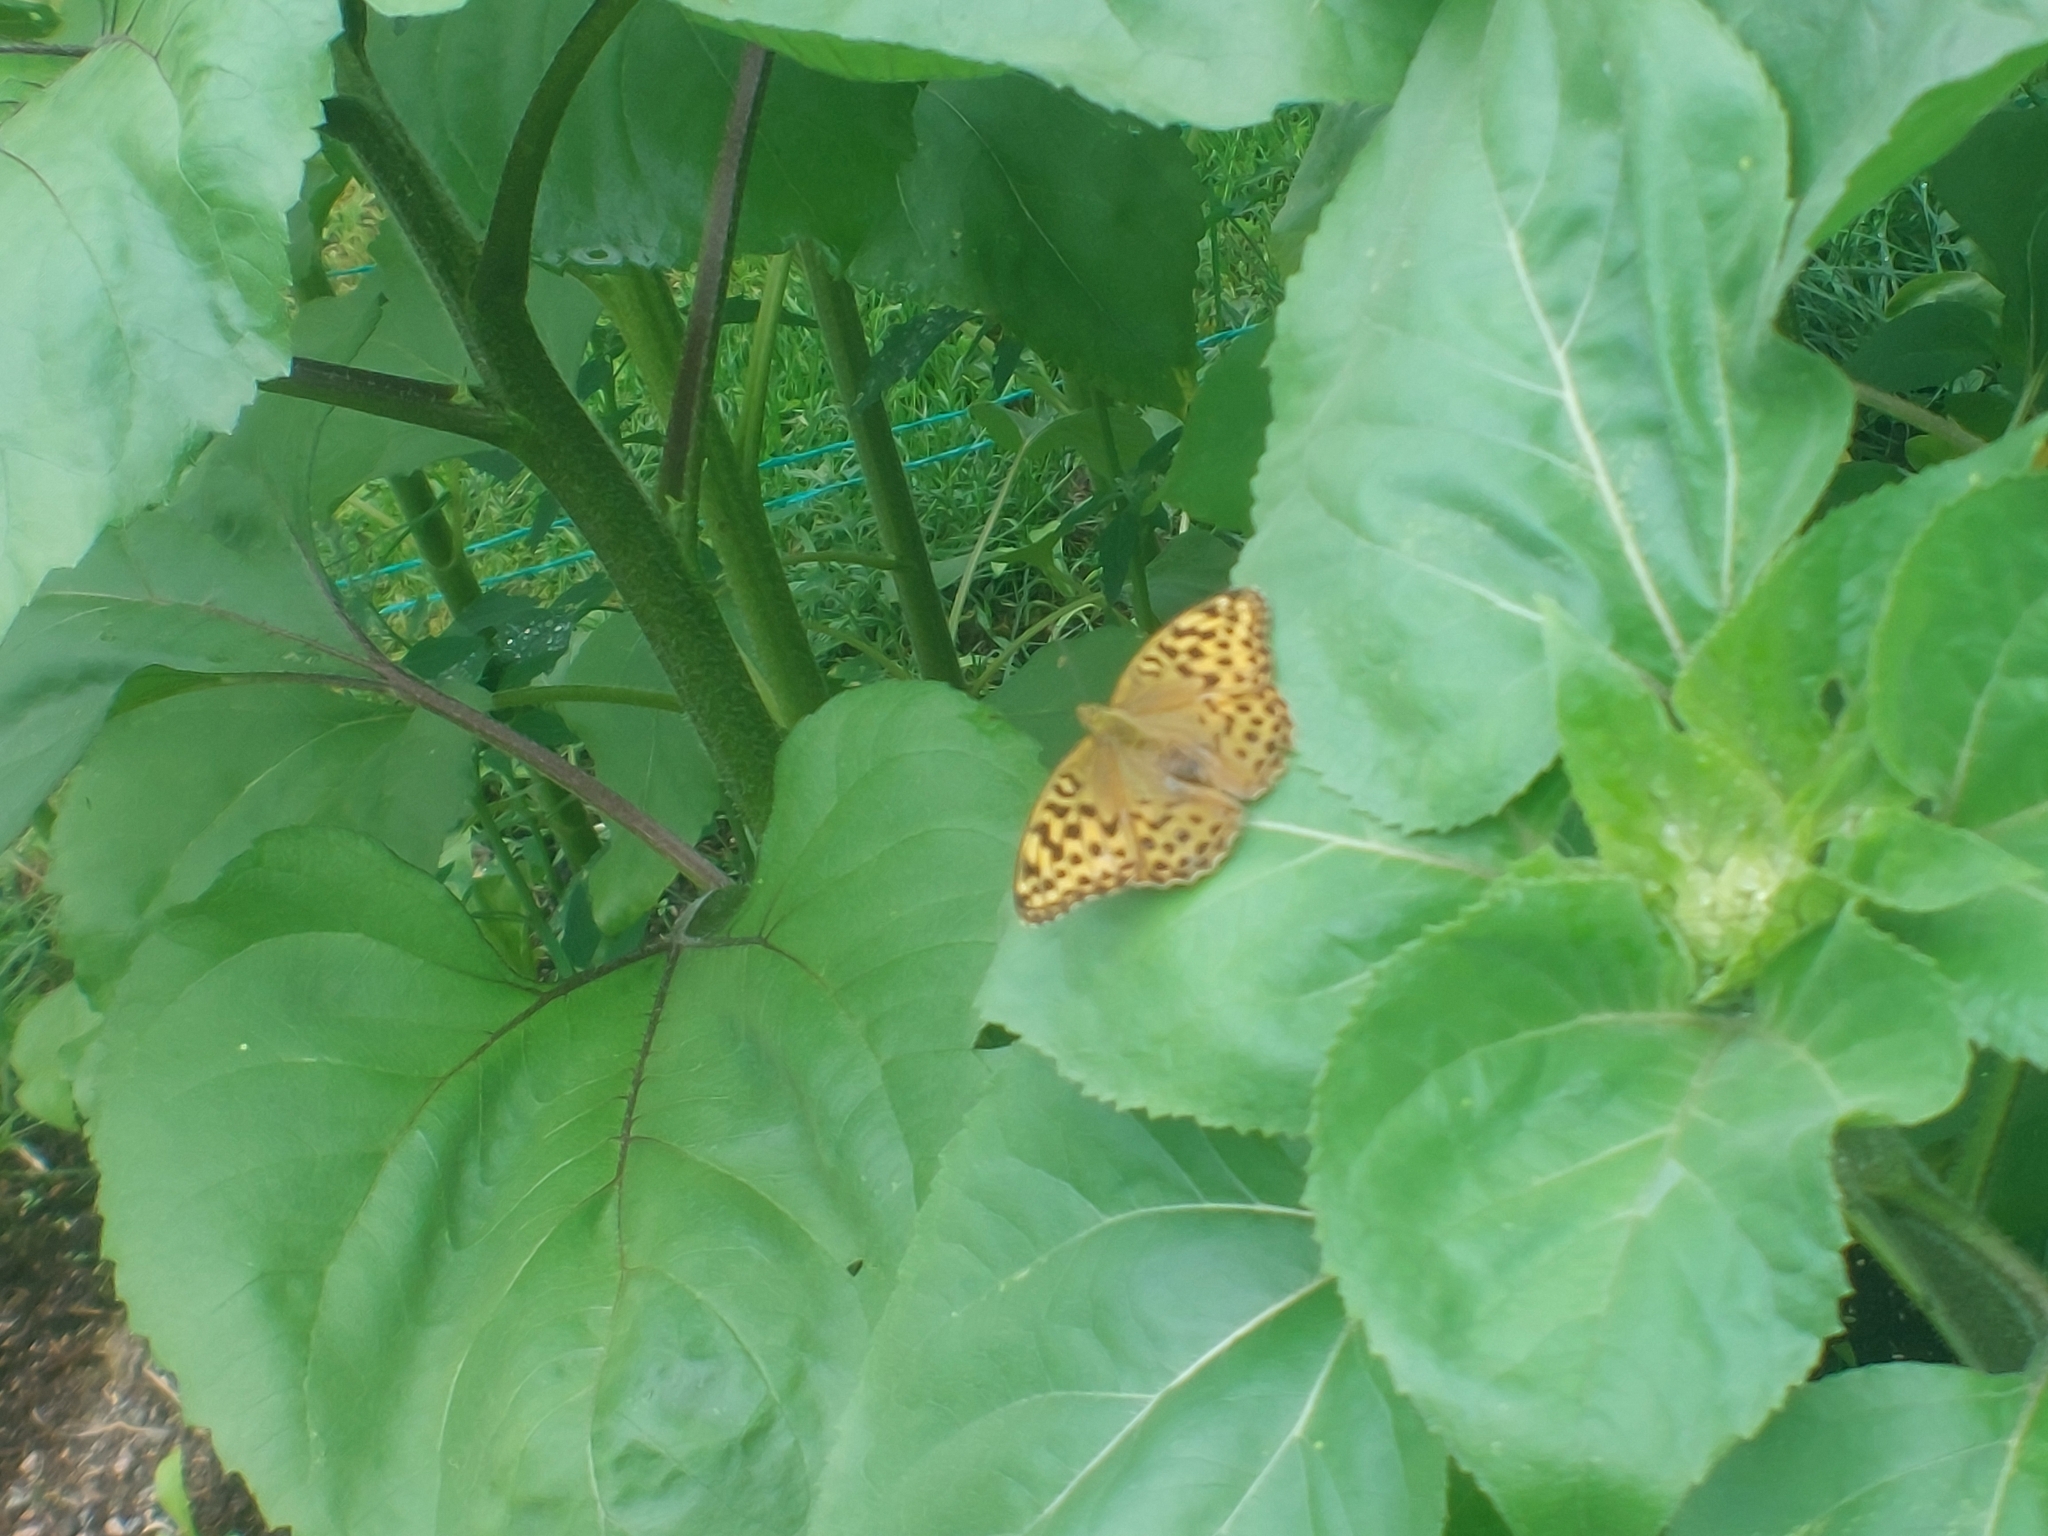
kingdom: Animalia
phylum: Arthropoda
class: Insecta
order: Lepidoptera
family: Nymphalidae
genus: Argynnis
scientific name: Argynnis paphia
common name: Silver-washed fritillary
